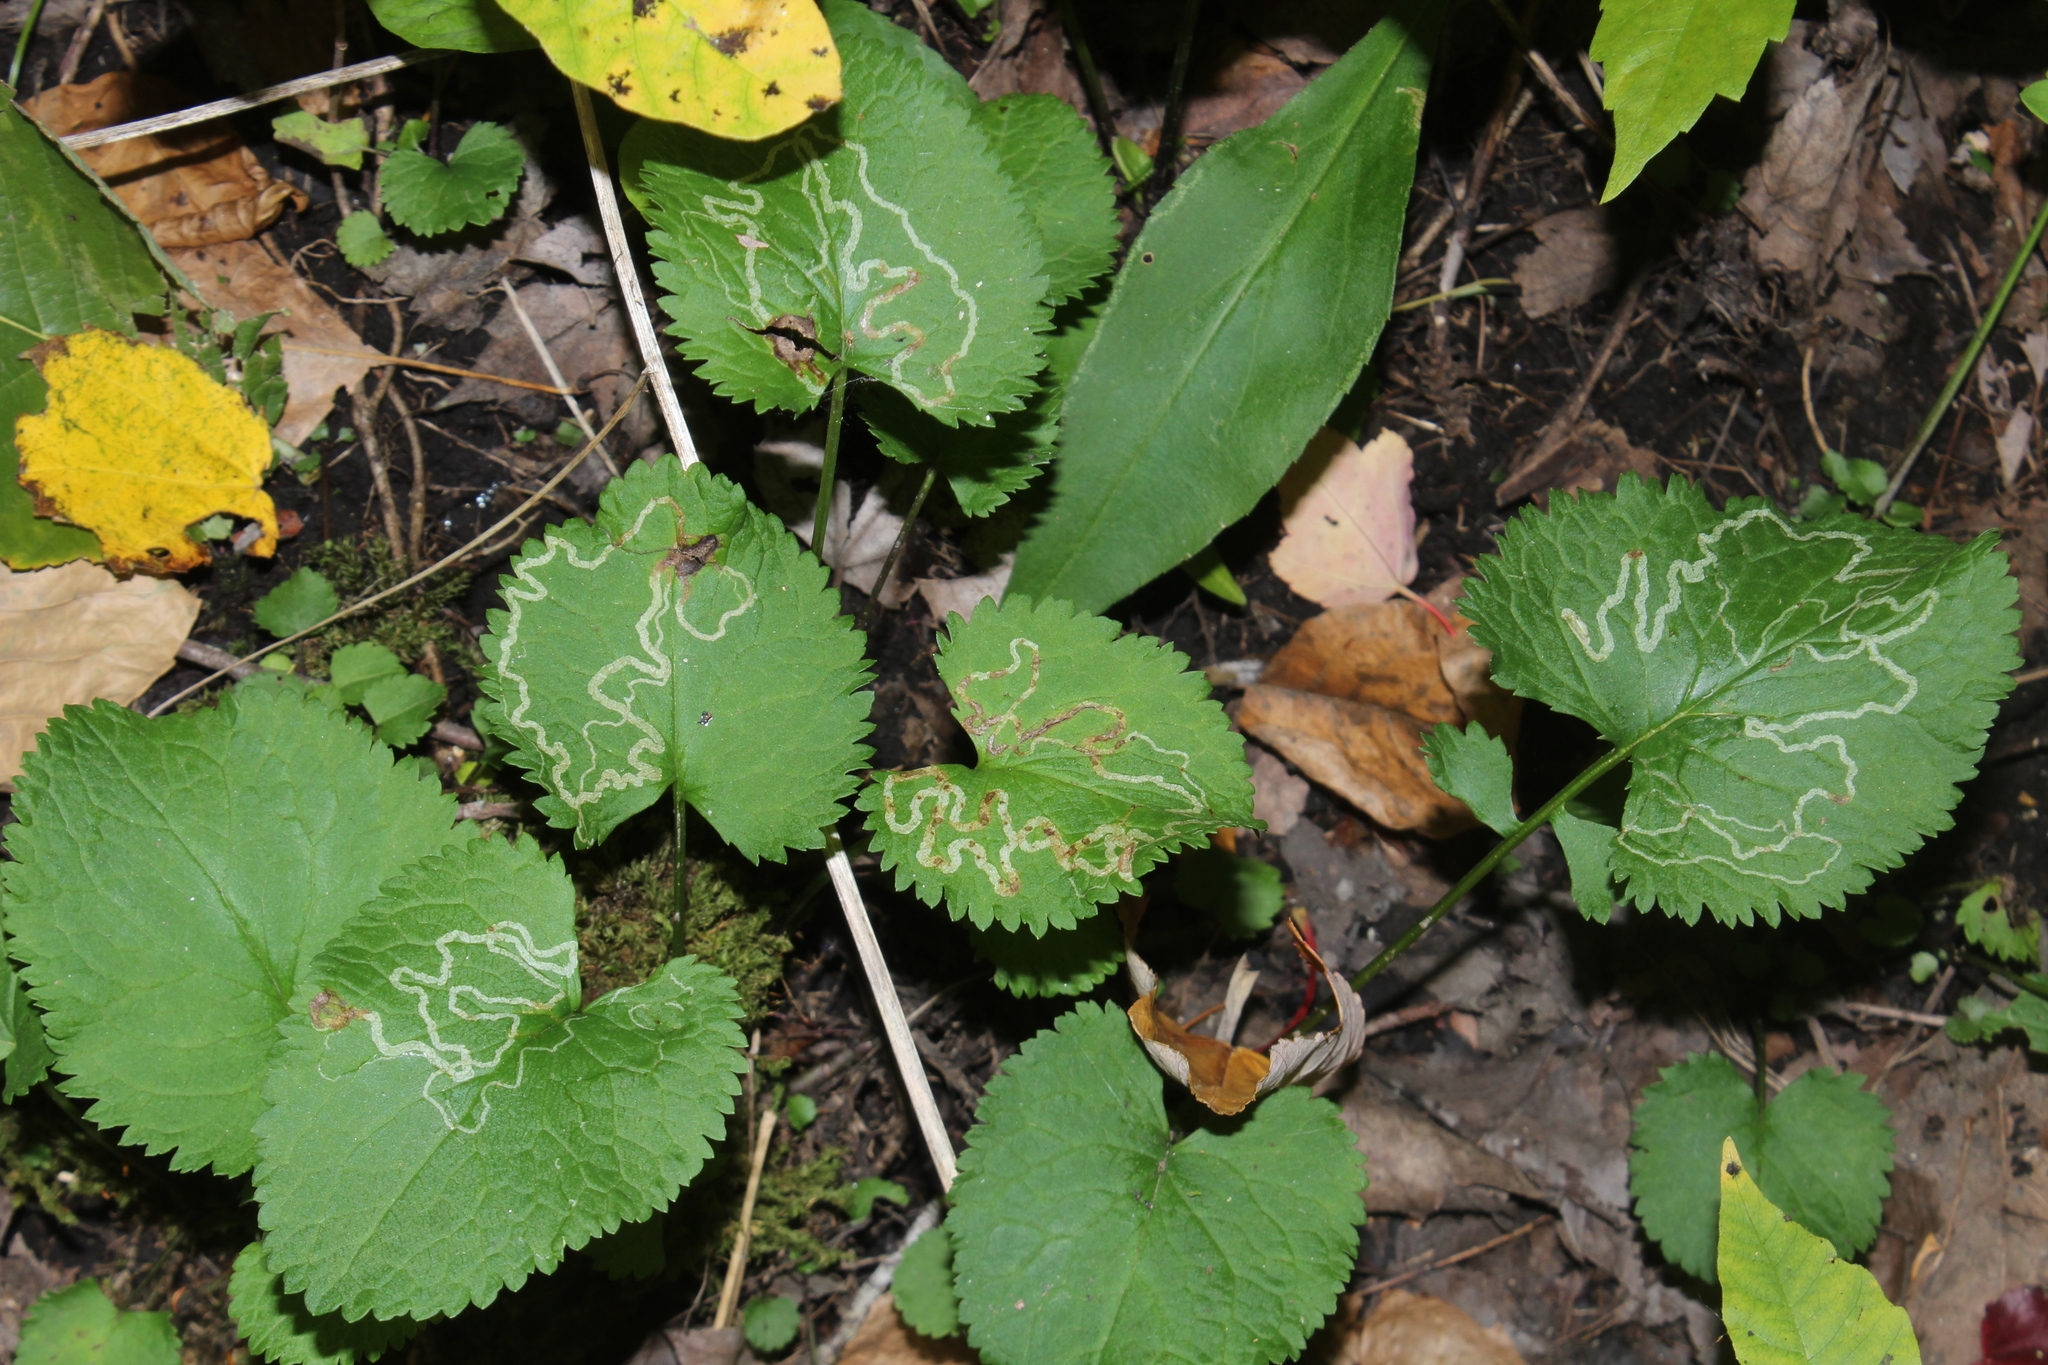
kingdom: Animalia
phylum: Arthropoda
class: Insecta
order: Lepidoptera
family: Gracillariidae
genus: Phyllocnistis
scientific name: Phyllocnistis insignis
